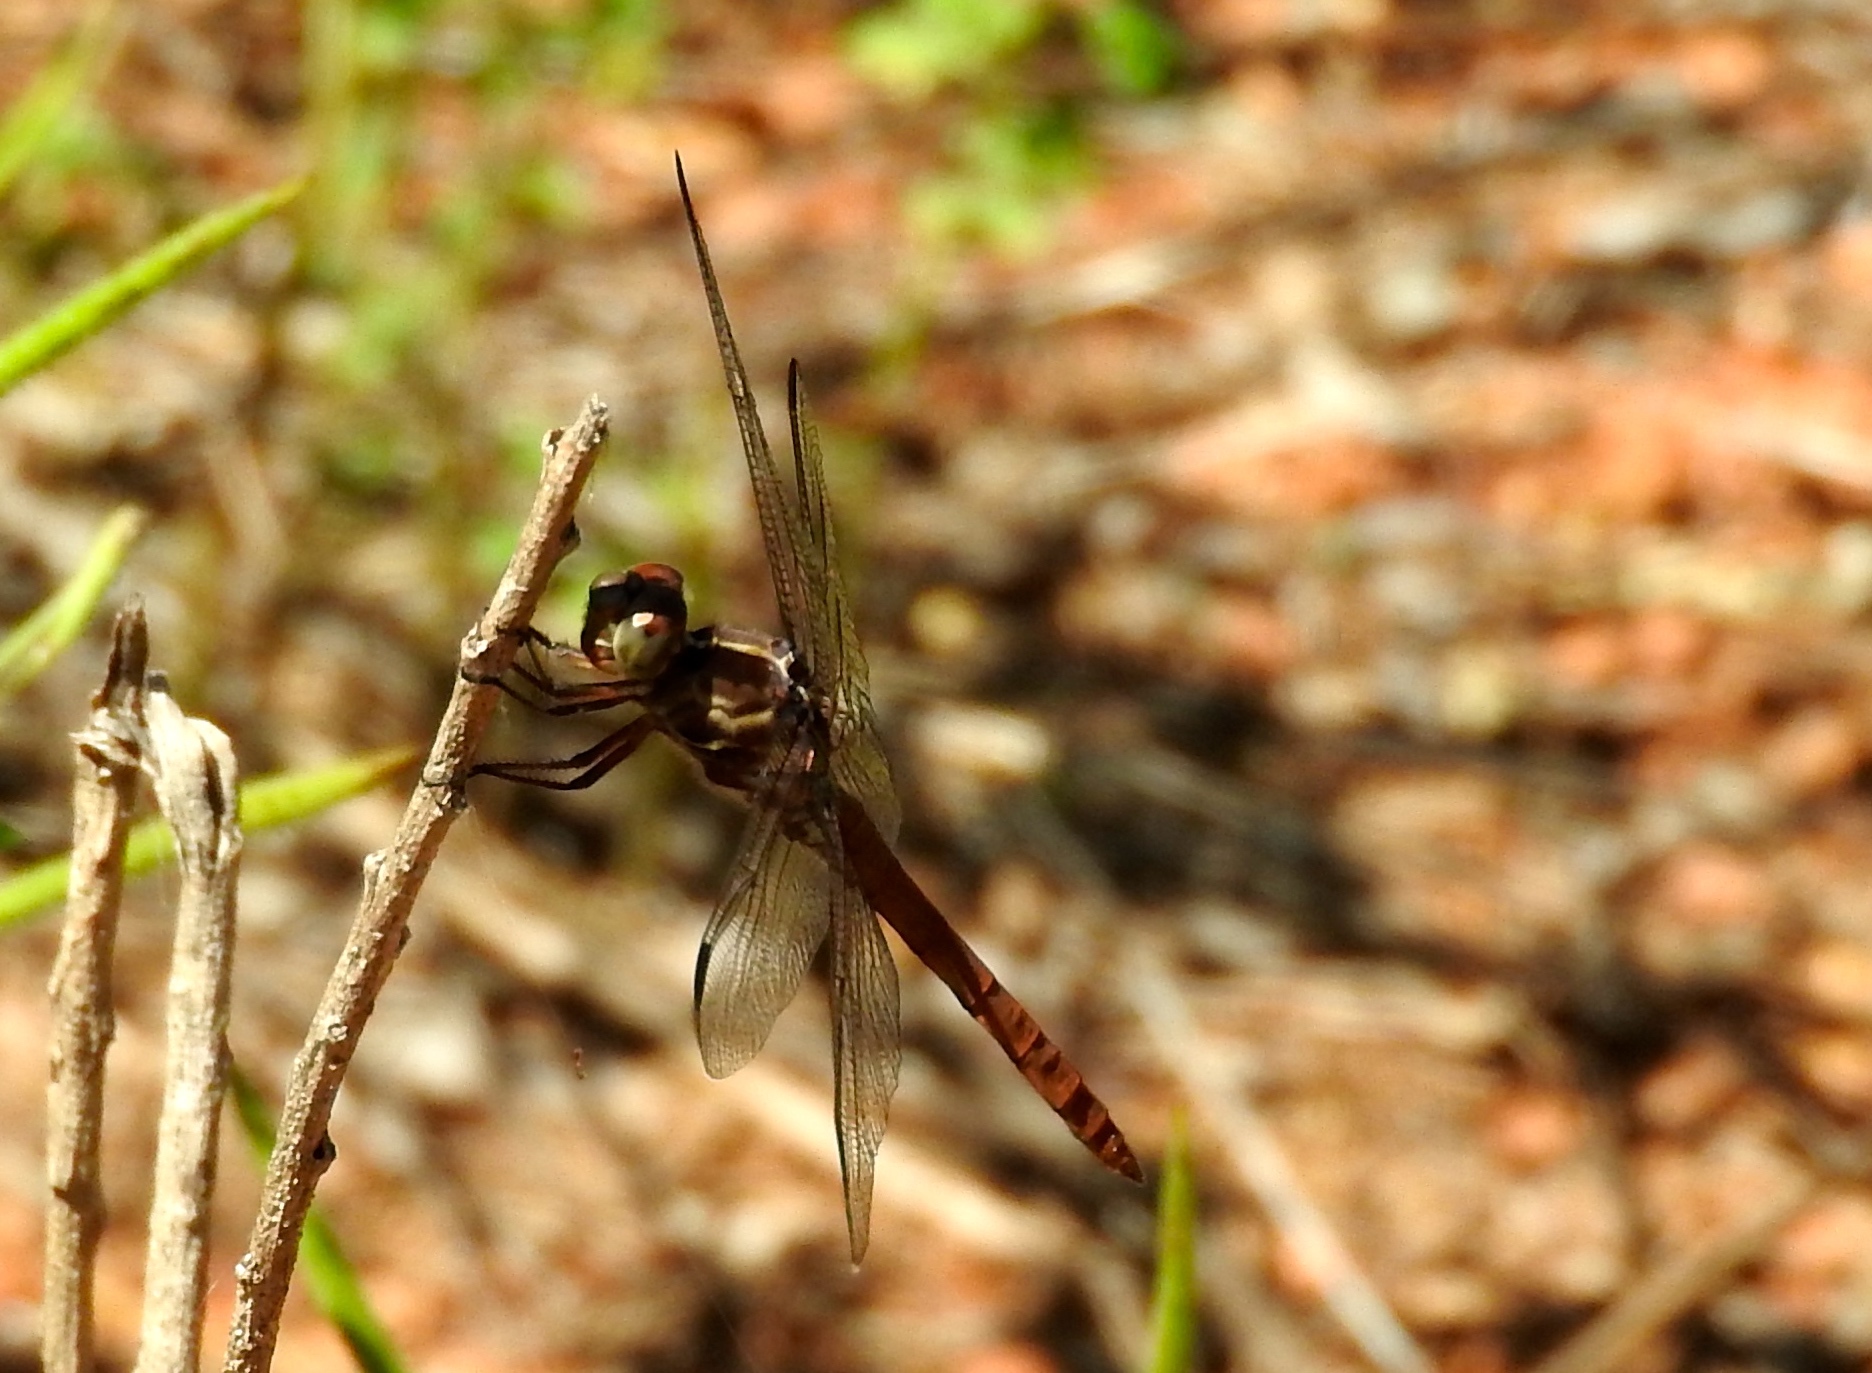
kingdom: Animalia
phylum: Arthropoda
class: Insecta
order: Odonata
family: Libellulidae
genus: Orthemis
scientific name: Orthemis ferruginea
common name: Roseate skimmer
